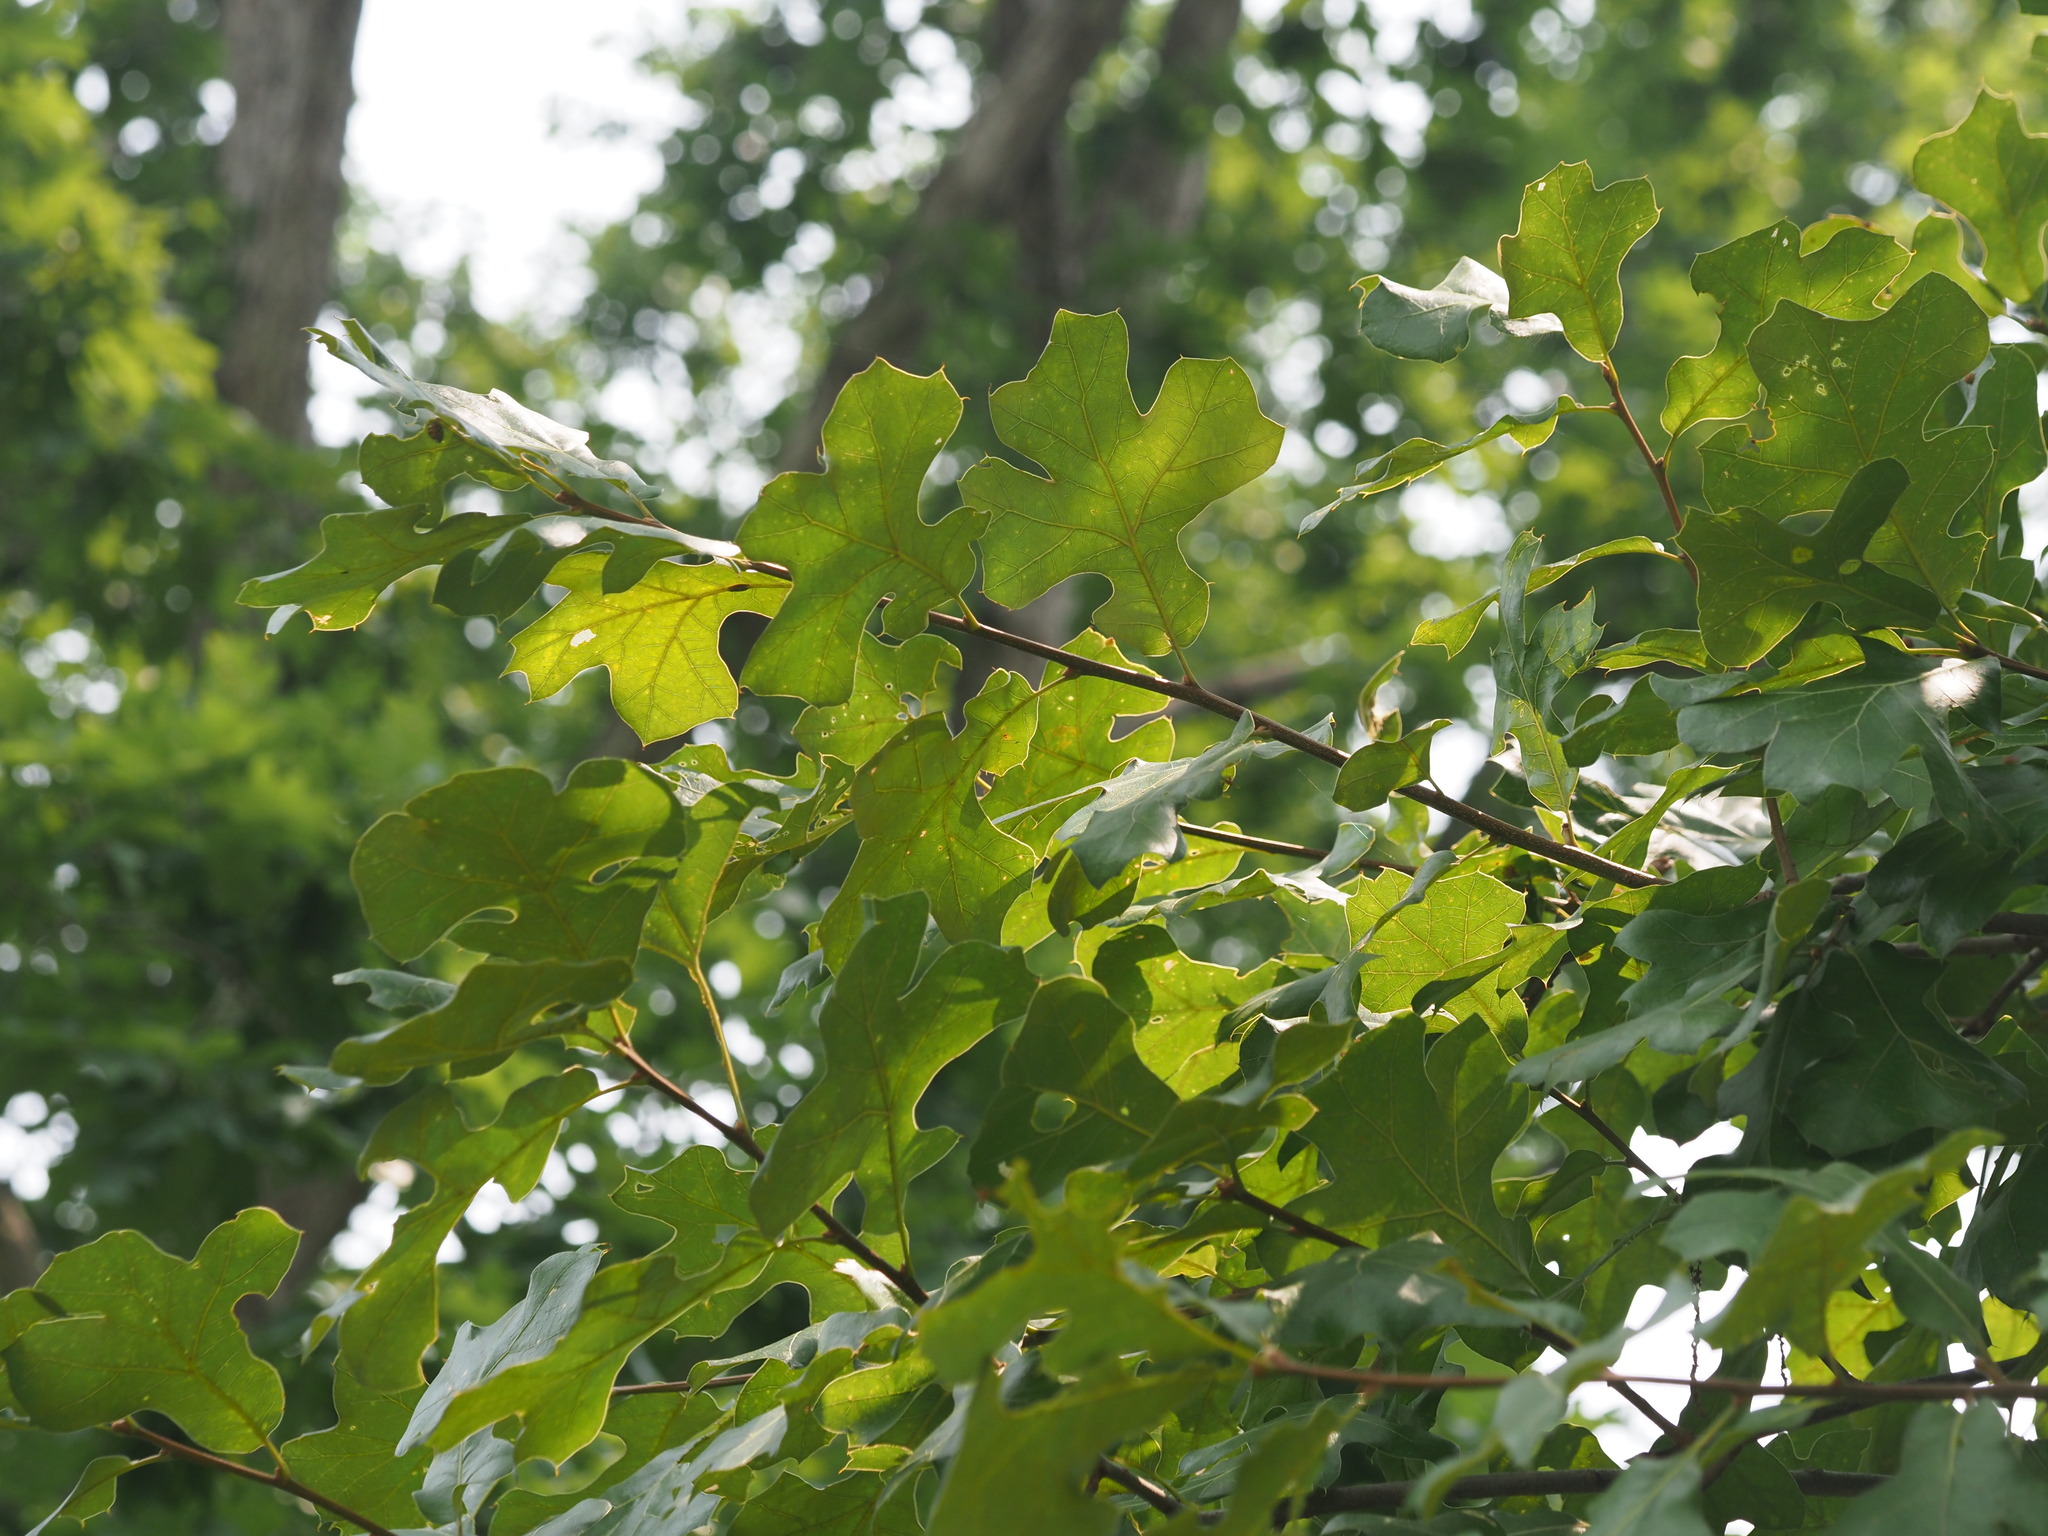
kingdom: Plantae
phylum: Tracheophyta
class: Magnoliopsida
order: Fagales
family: Fagaceae
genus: Quercus
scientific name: Quercus stellata
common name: Post oak
